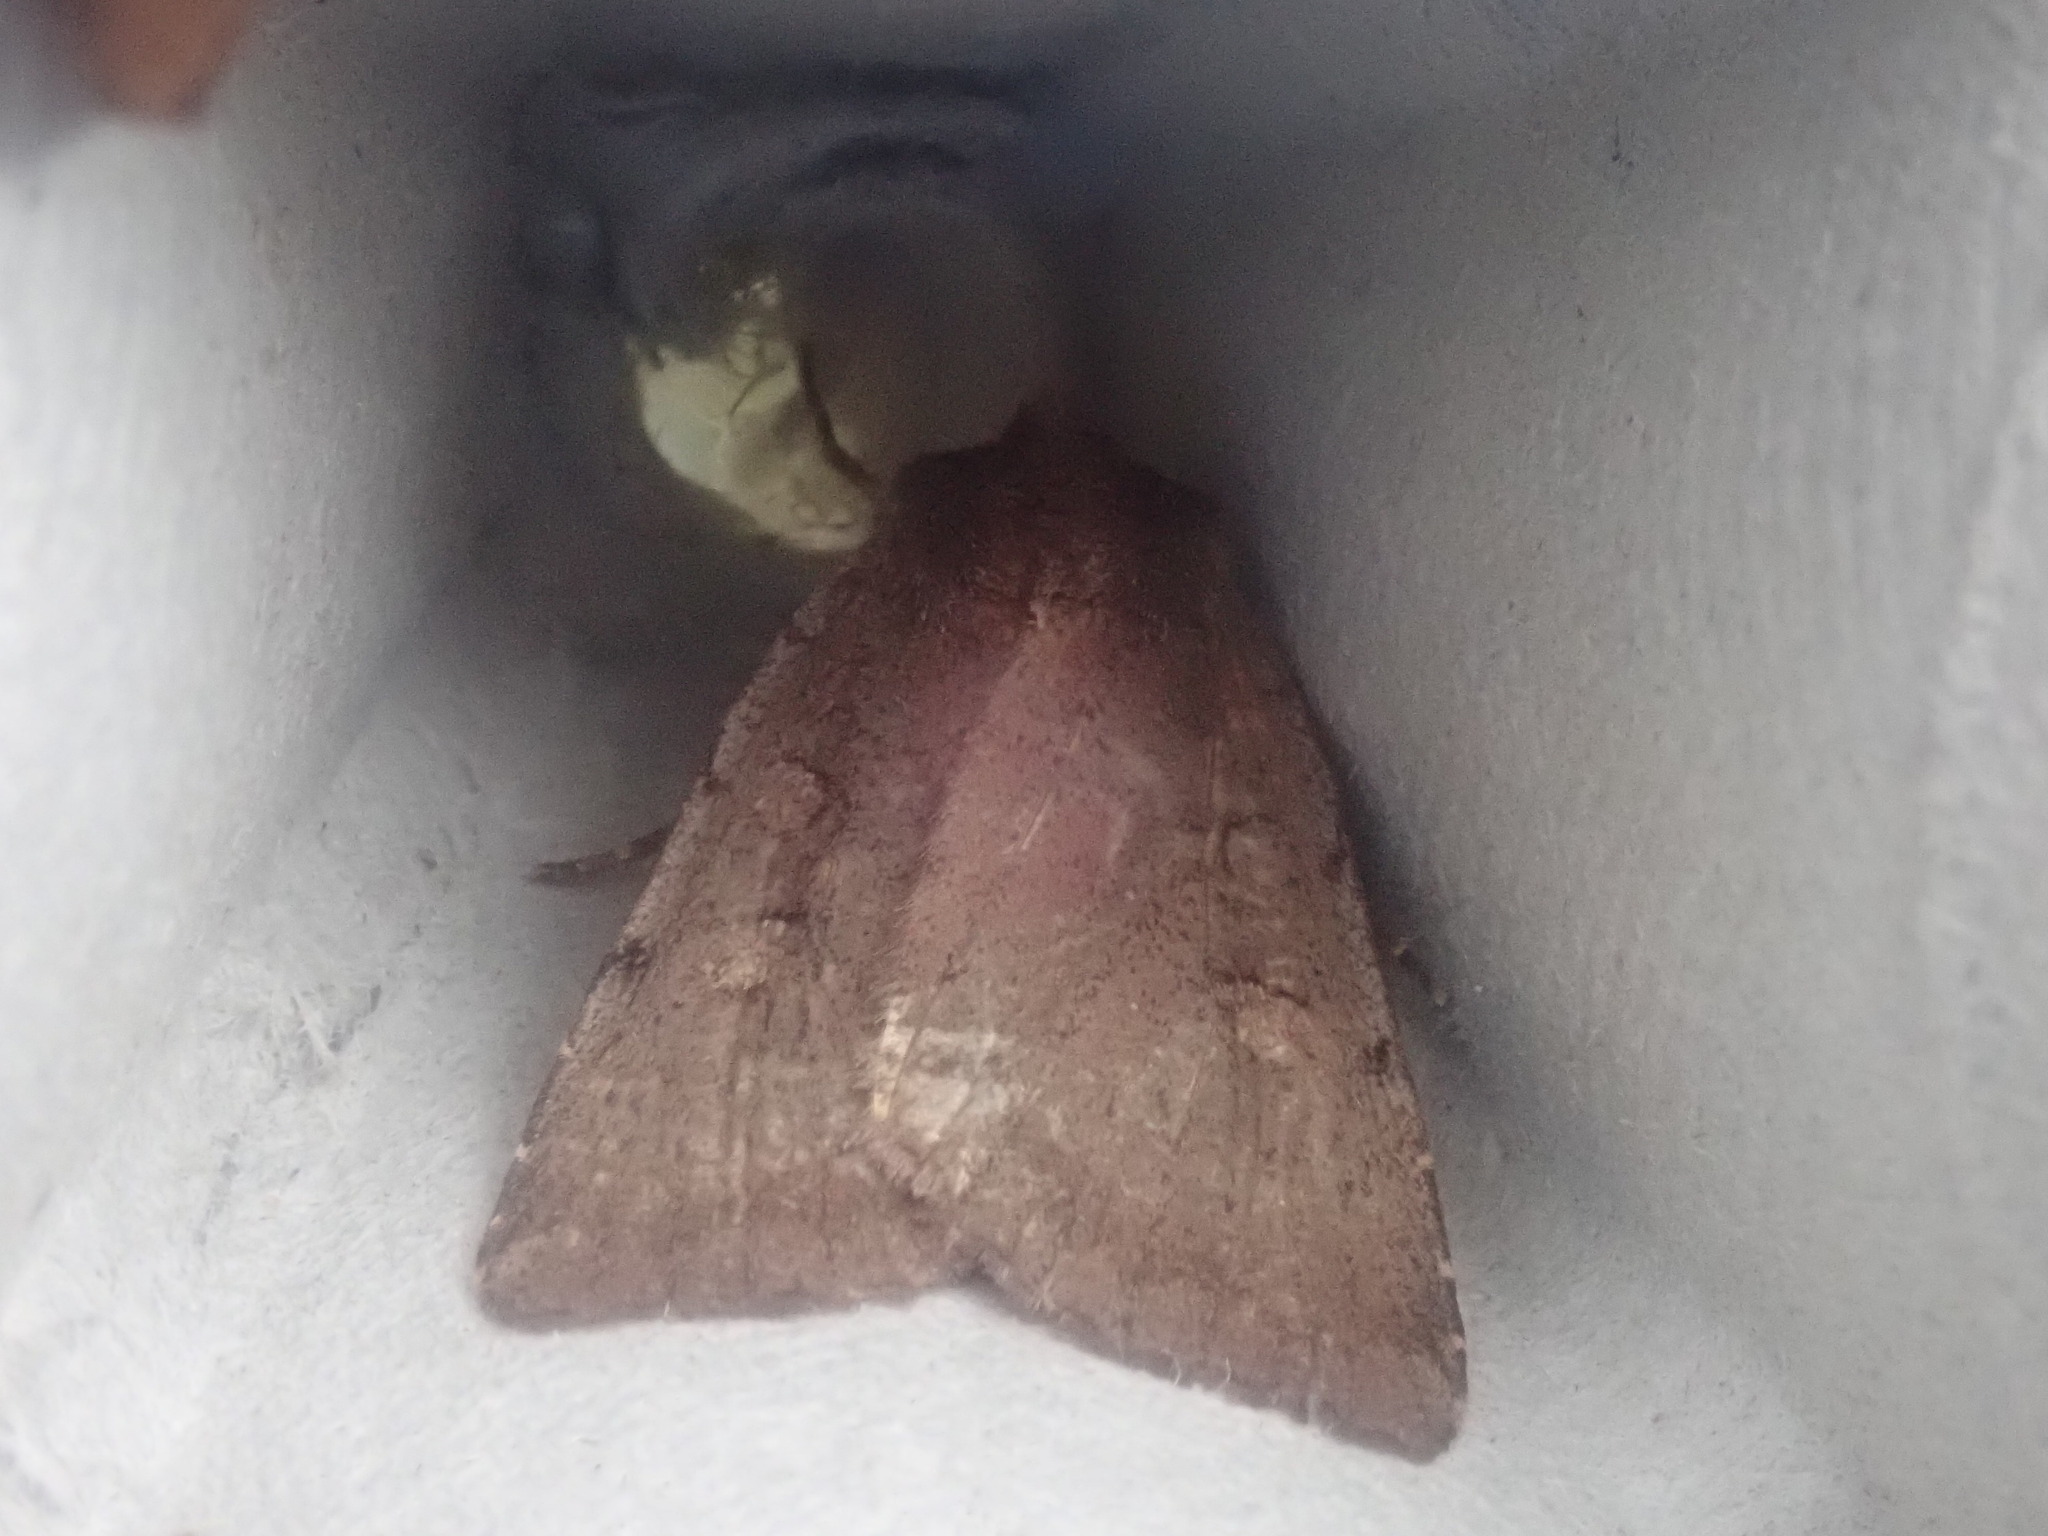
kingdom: Animalia
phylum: Arthropoda
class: Insecta
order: Lepidoptera
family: Noctuidae
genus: Xestia
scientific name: Xestia dilucida
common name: Dull reddish dart
